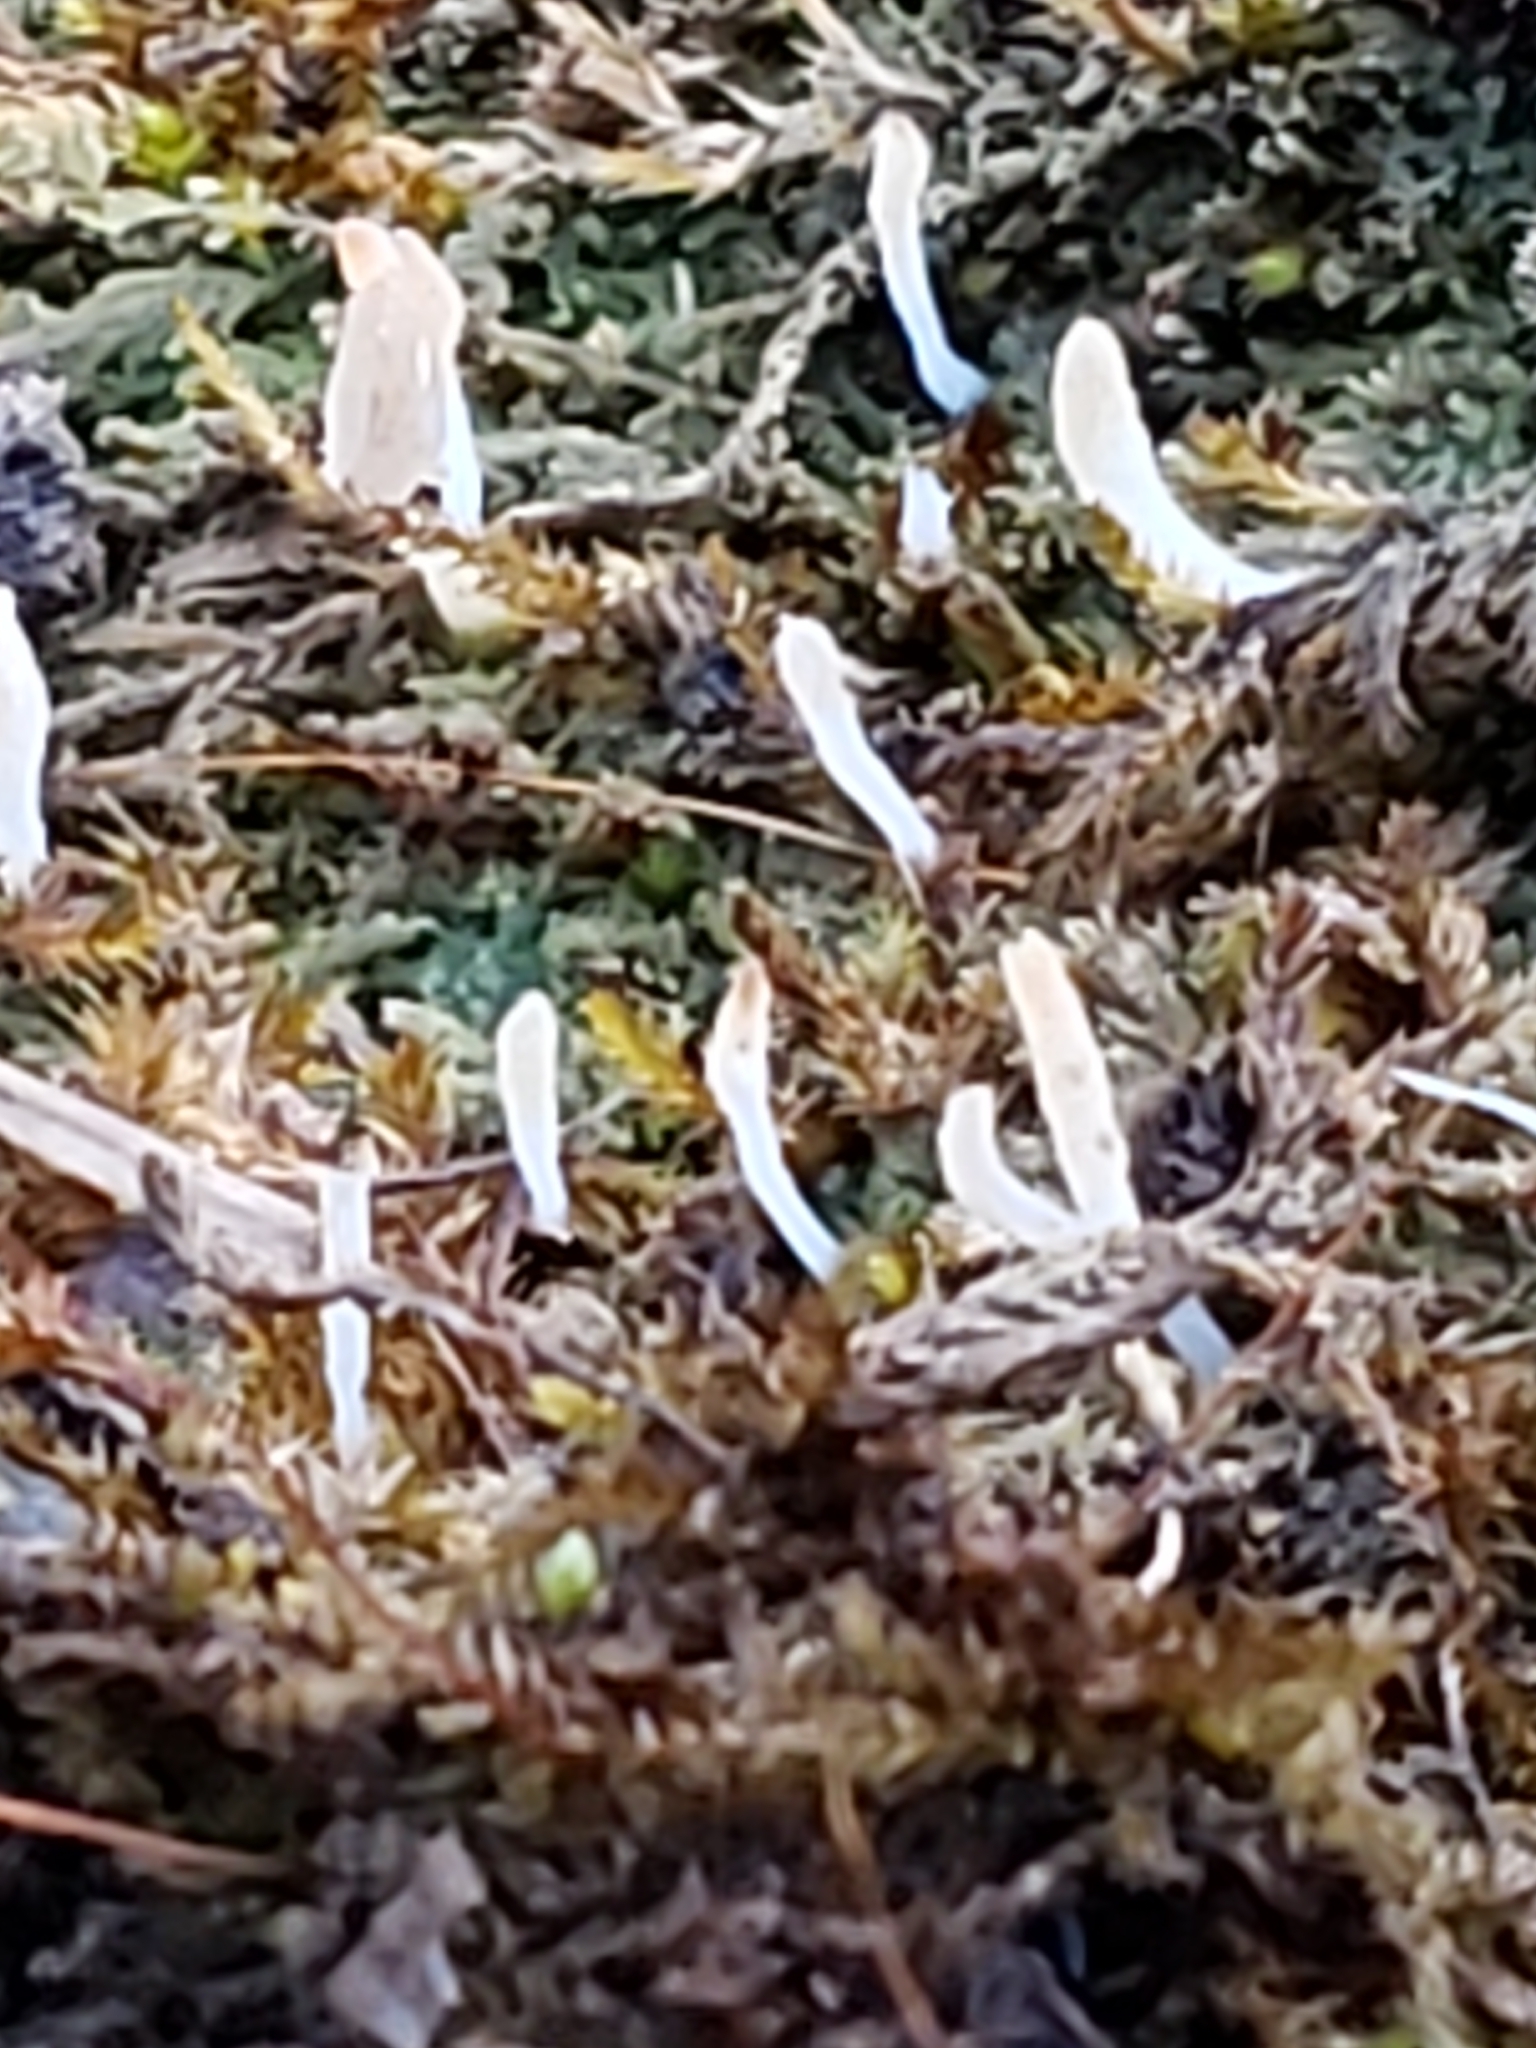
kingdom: Fungi
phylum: Basidiomycota
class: Agaricomycetes
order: Cantharellales
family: Hydnaceae
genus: Multiclavula
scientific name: Multiclavula mucida
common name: White green-algae coral
